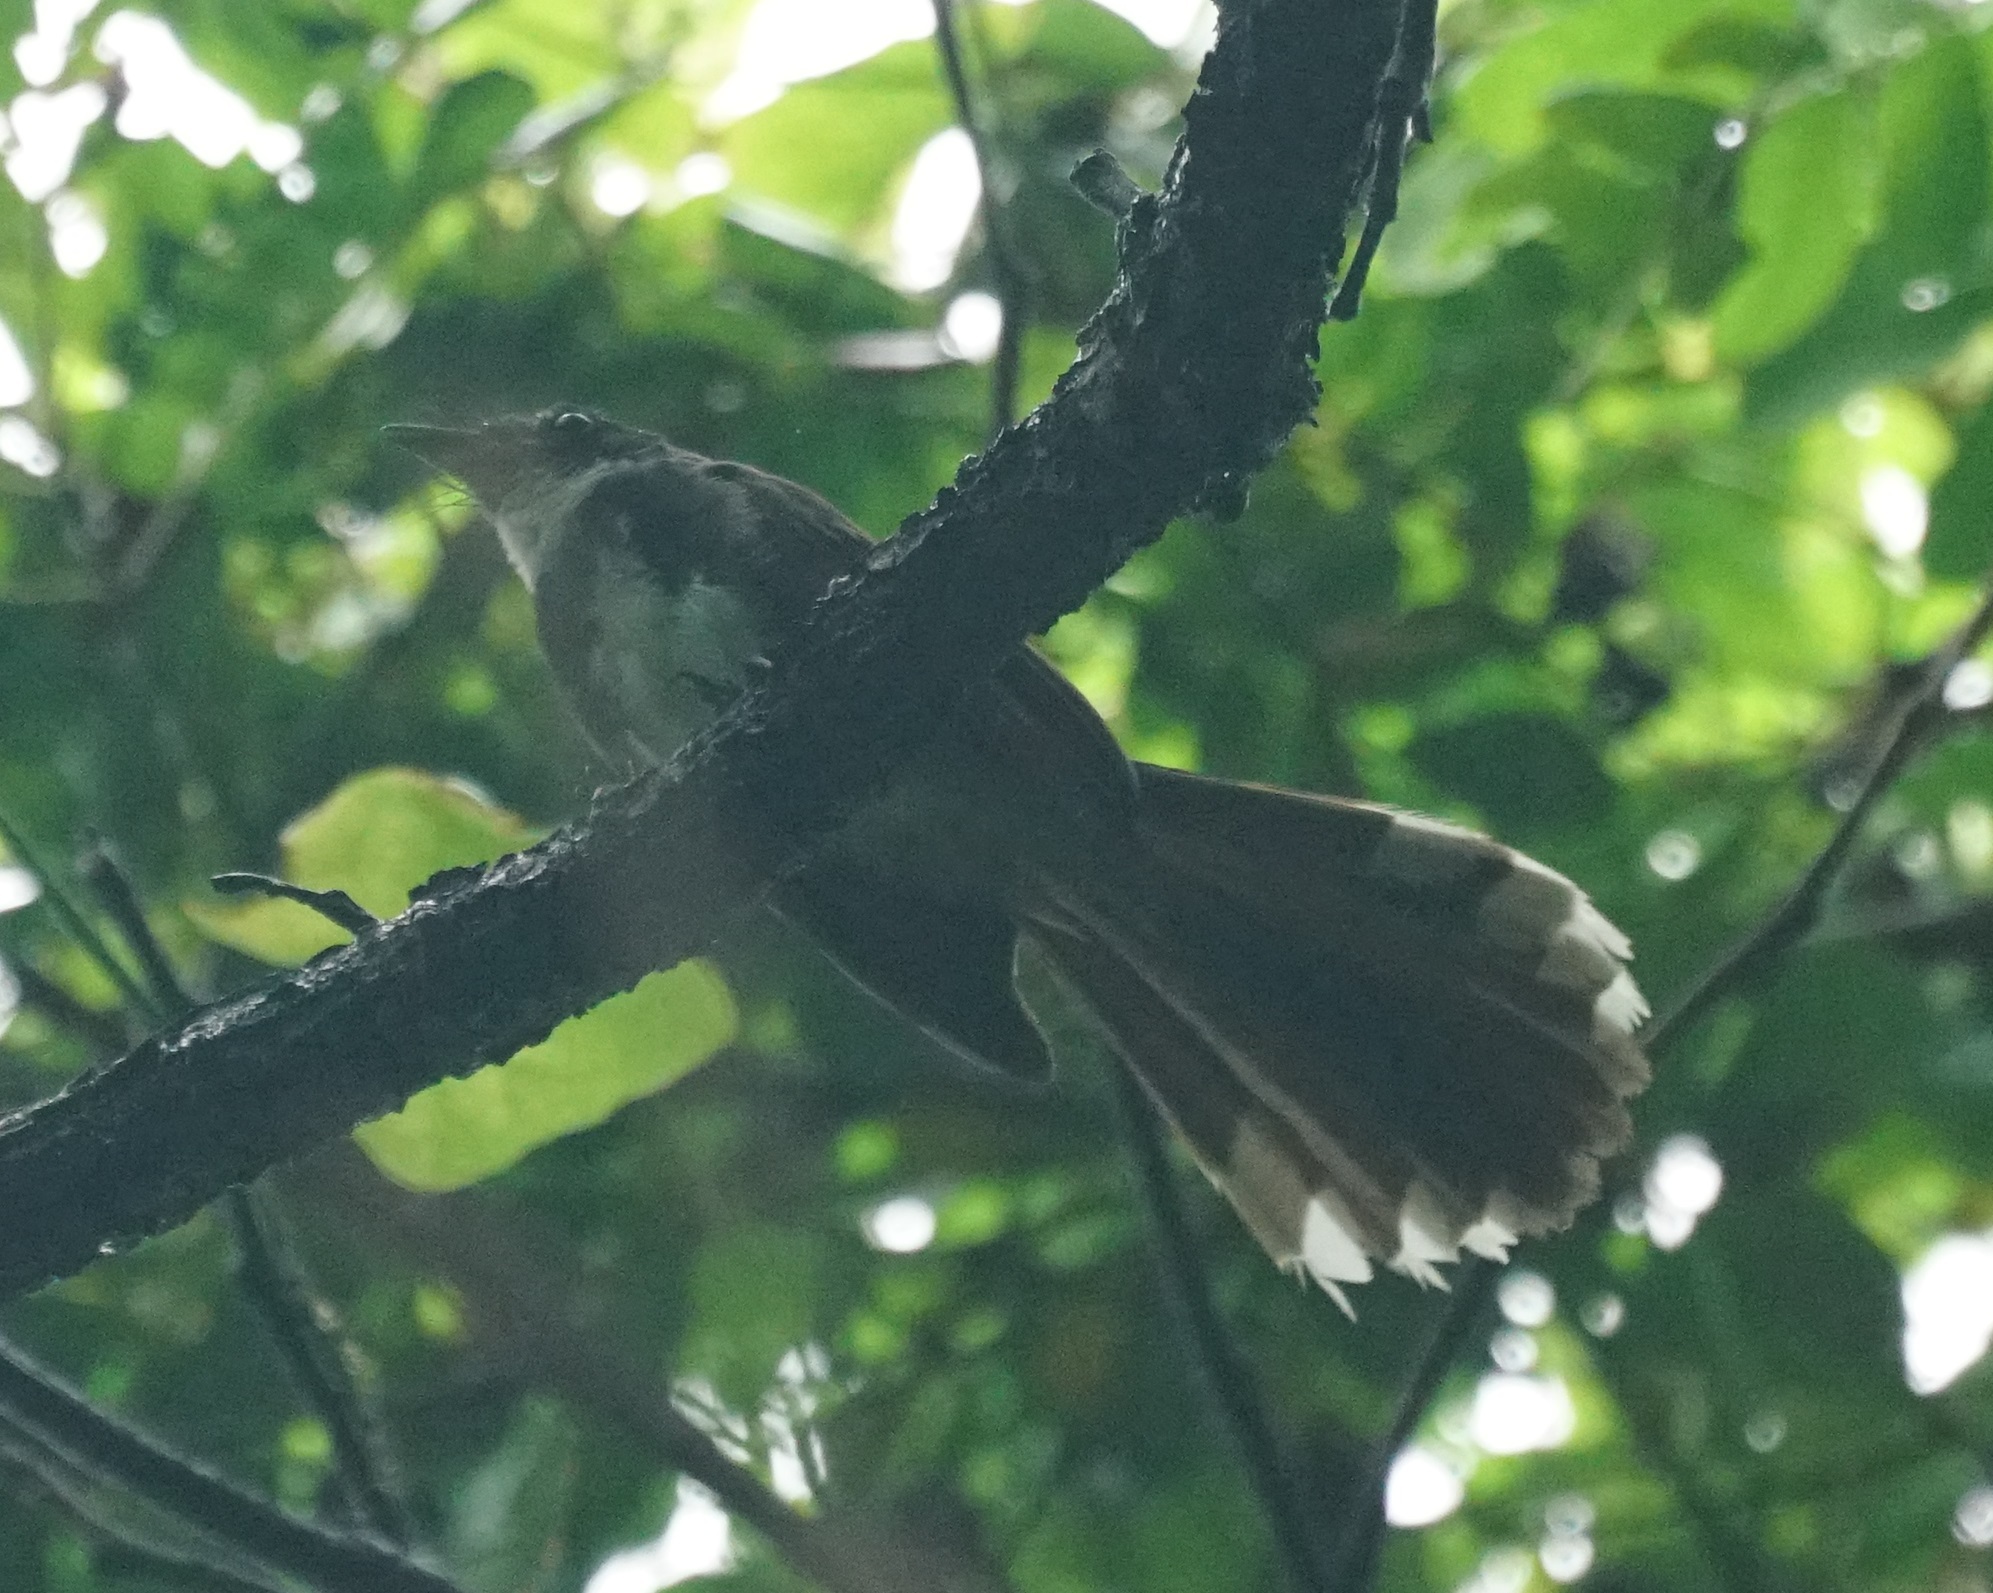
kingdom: Animalia
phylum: Chordata
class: Aves
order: Passeriformes
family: Rhipiduridae
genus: Rhipidura
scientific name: Rhipidura javanica
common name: Pied fantail
